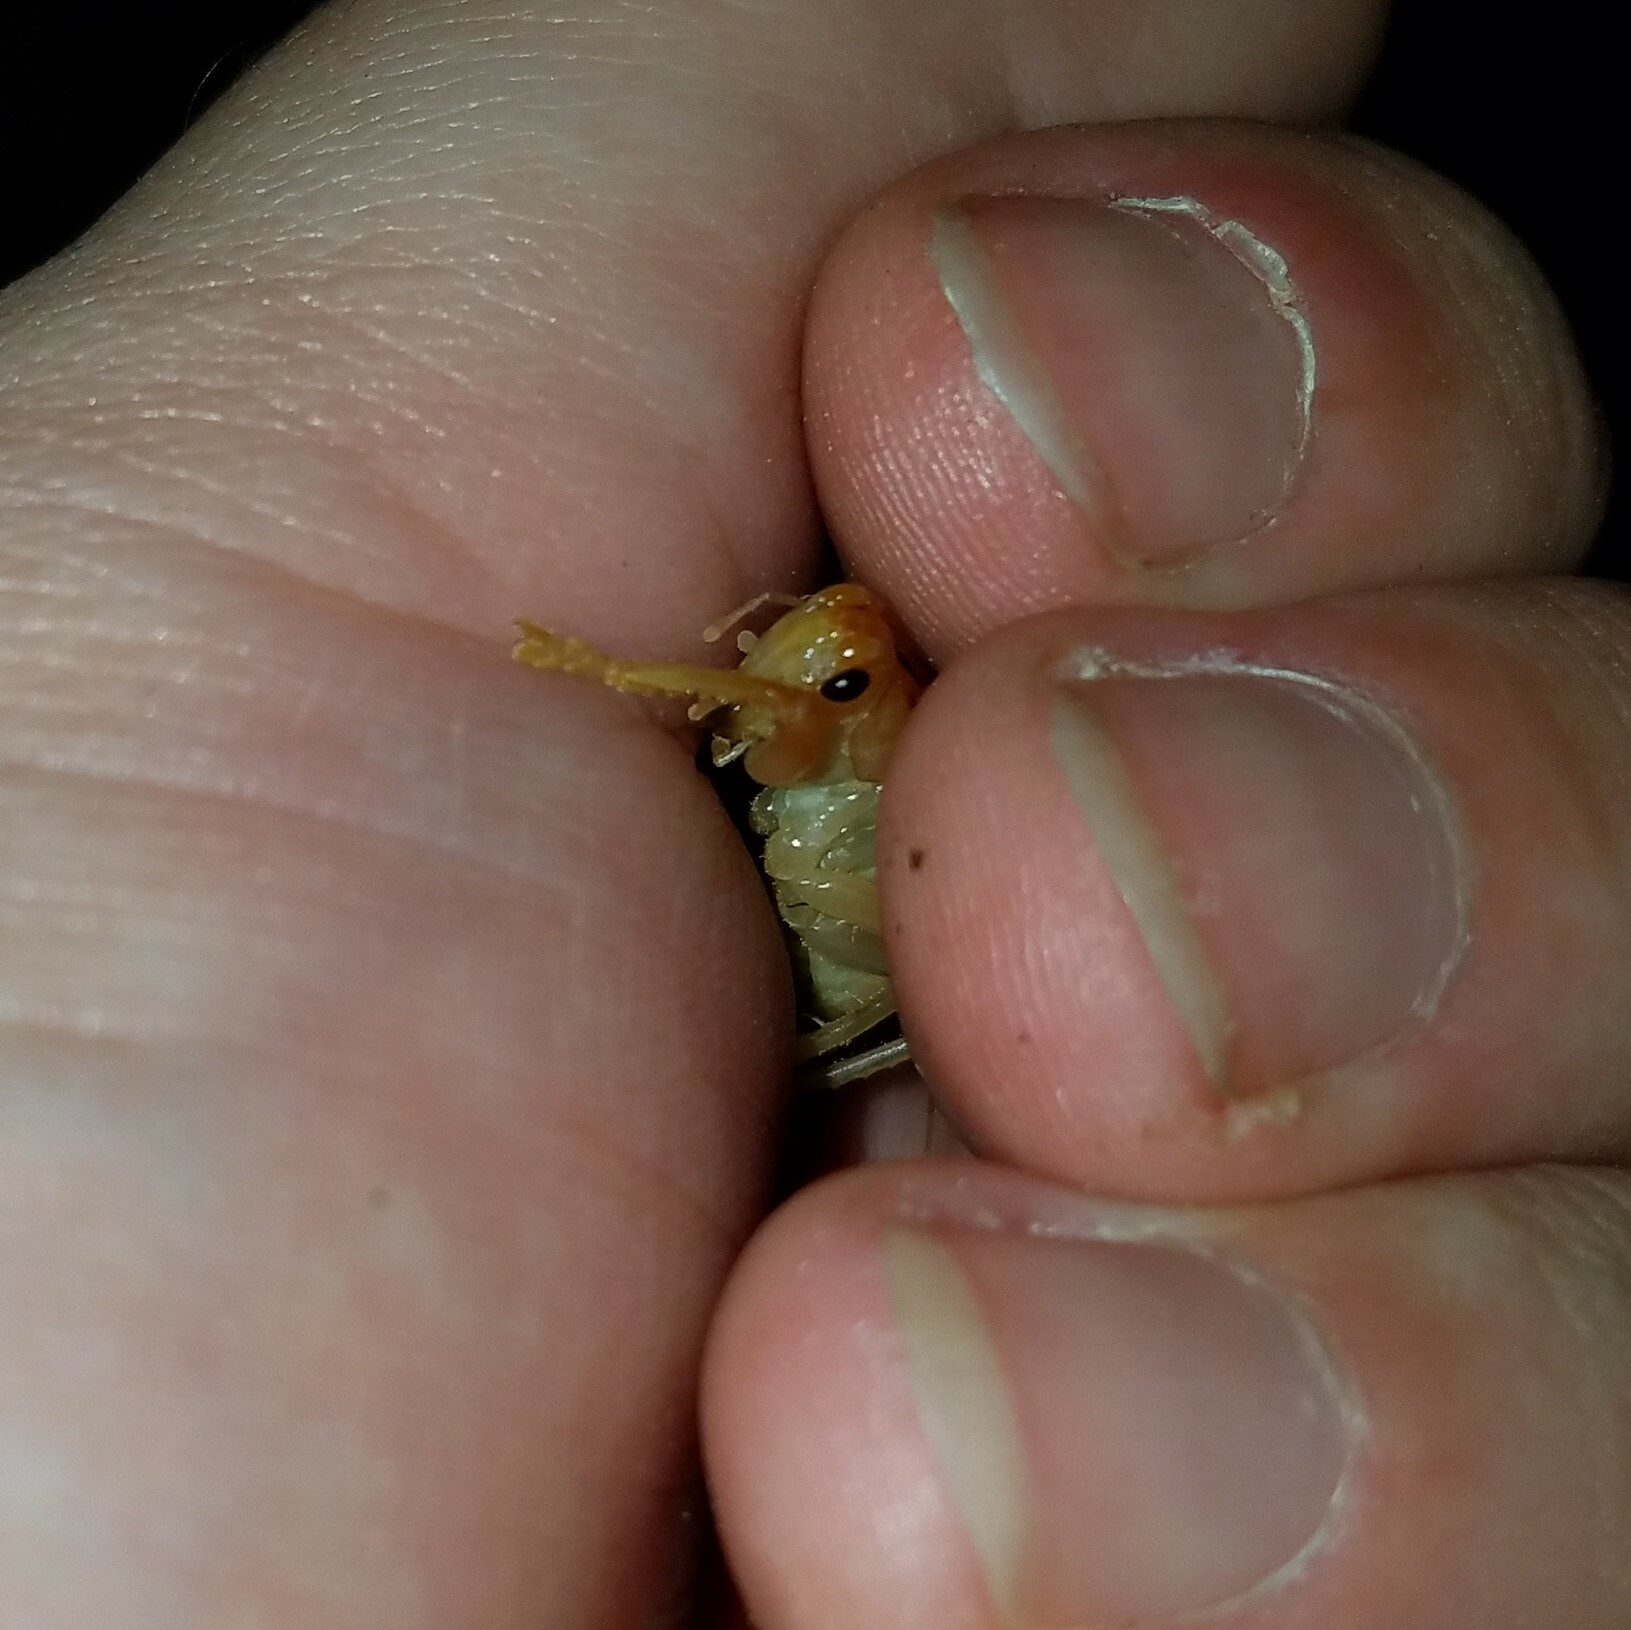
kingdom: Animalia
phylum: Arthropoda
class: Insecta
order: Orthoptera
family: Gryllacrididae
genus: Camptonotus
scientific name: Camptonotus carolinensis
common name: Carolina leaf-roller
